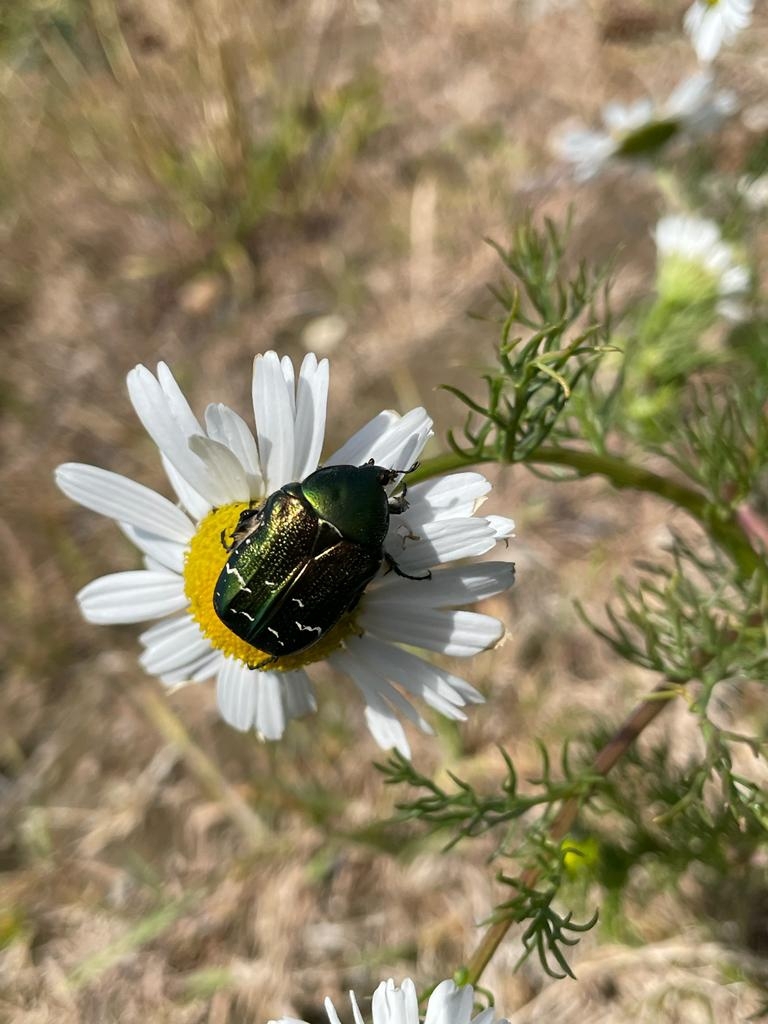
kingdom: Animalia
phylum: Arthropoda
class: Insecta
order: Coleoptera
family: Scarabaeidae
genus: Cetonia
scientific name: Cetonia aurata
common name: Rose chafer
